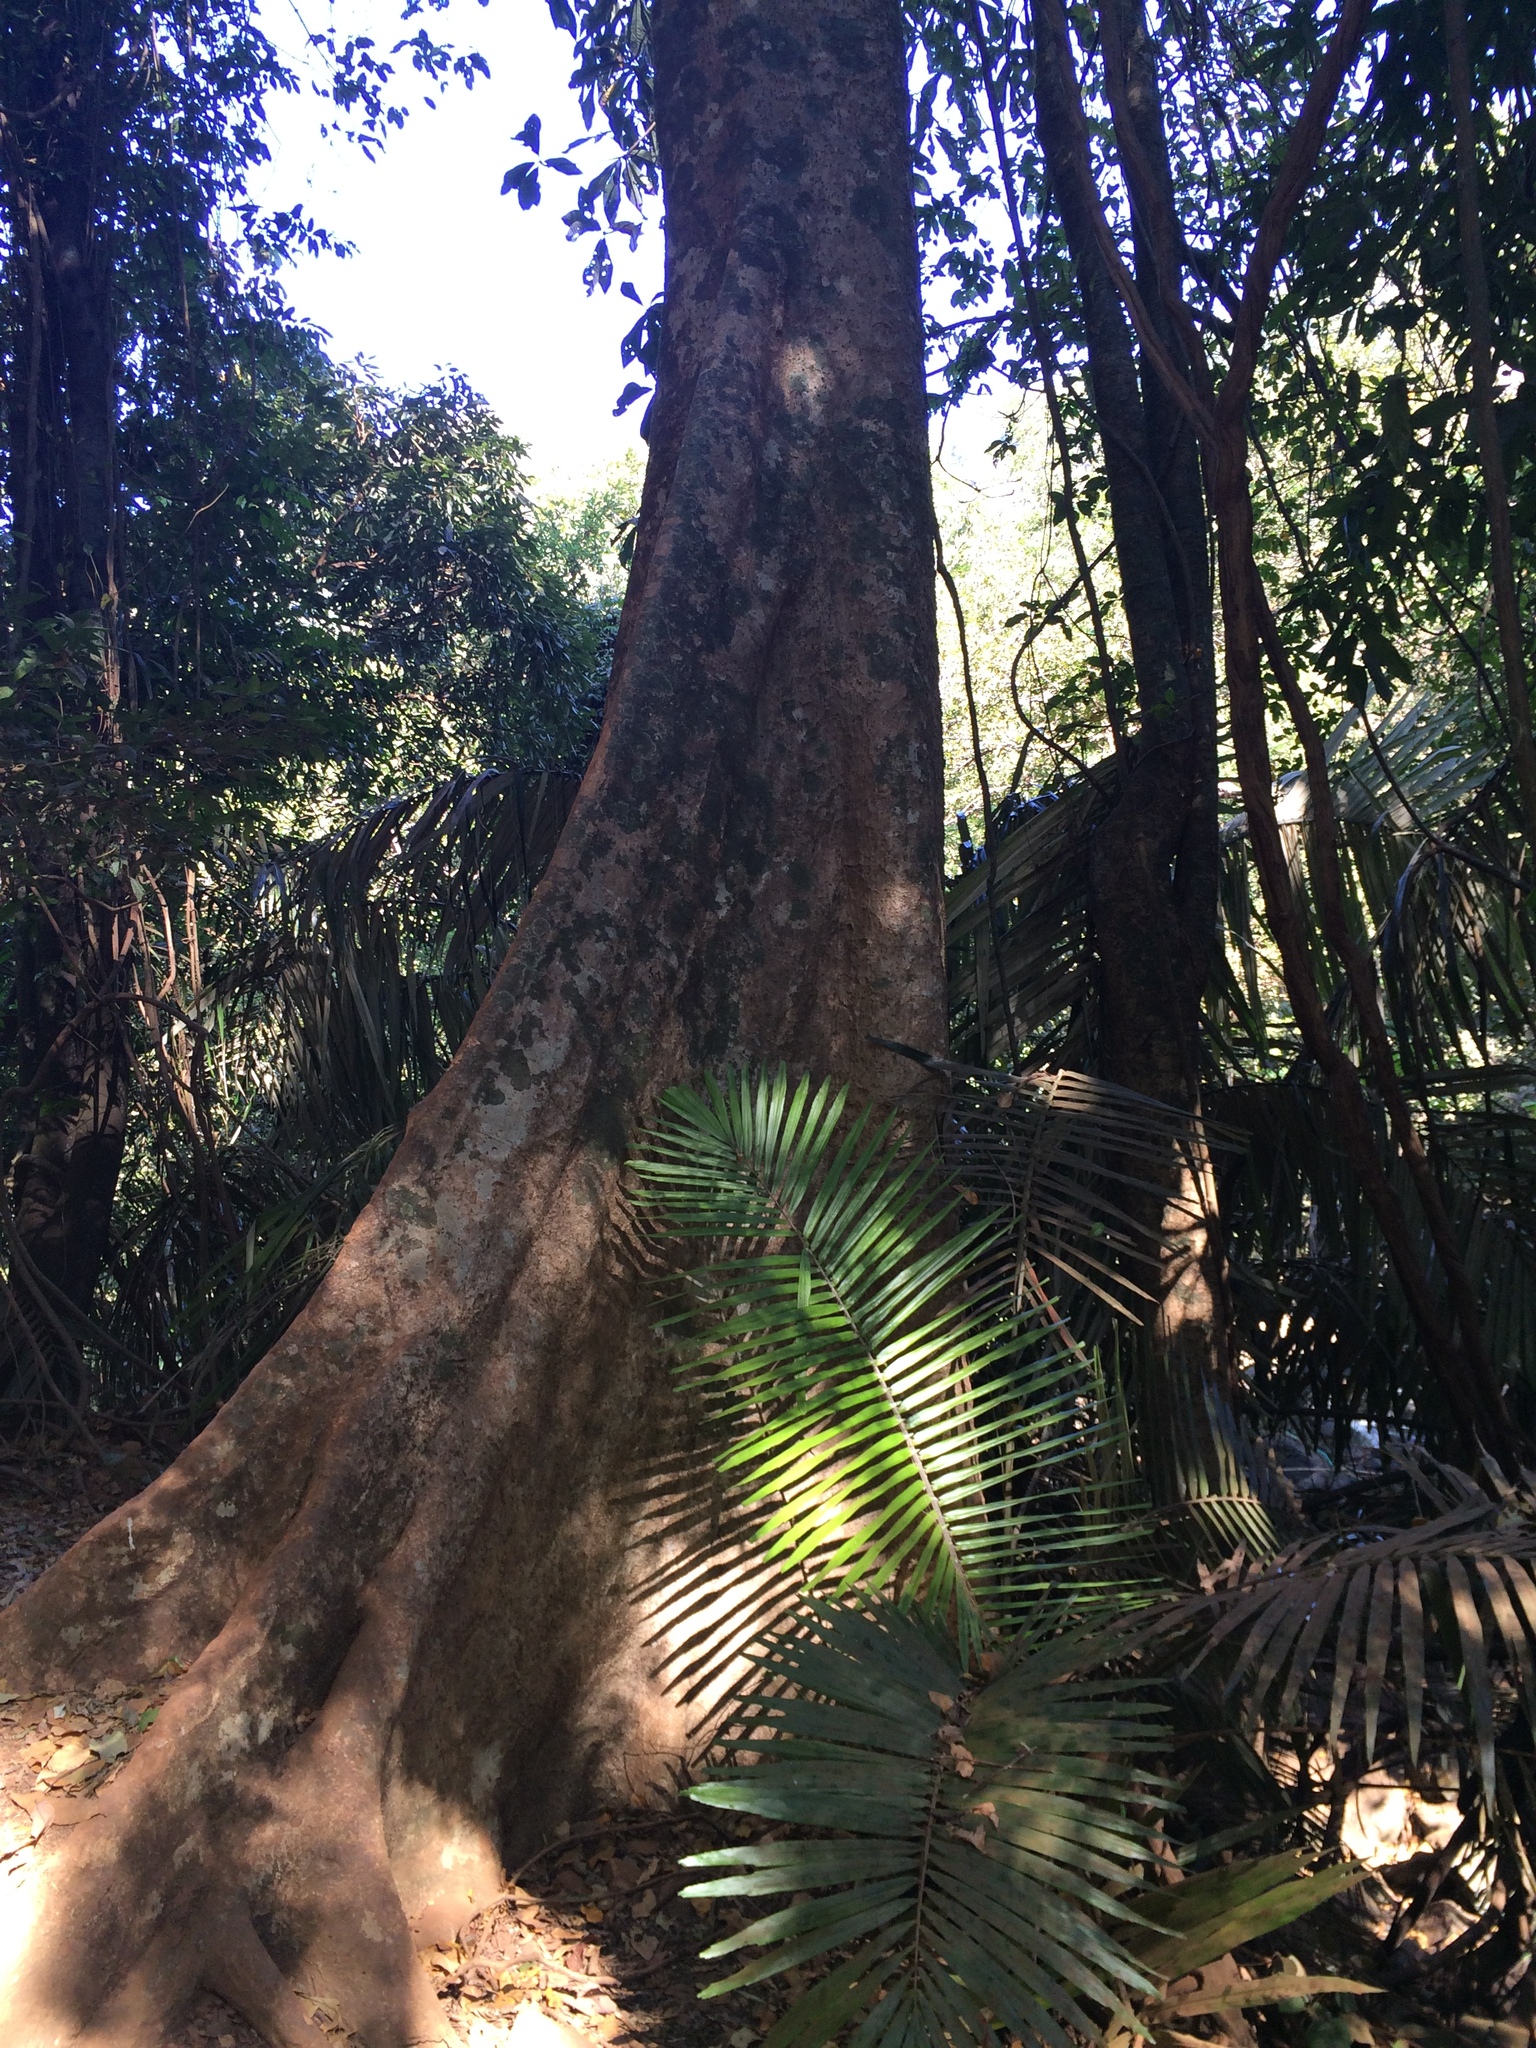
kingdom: Plantae
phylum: Tracheophyta
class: Magnoliopsida
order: Cucurbitales
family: Tetramelaceae
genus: Tetrameles
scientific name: Tetrameles nudiflora
